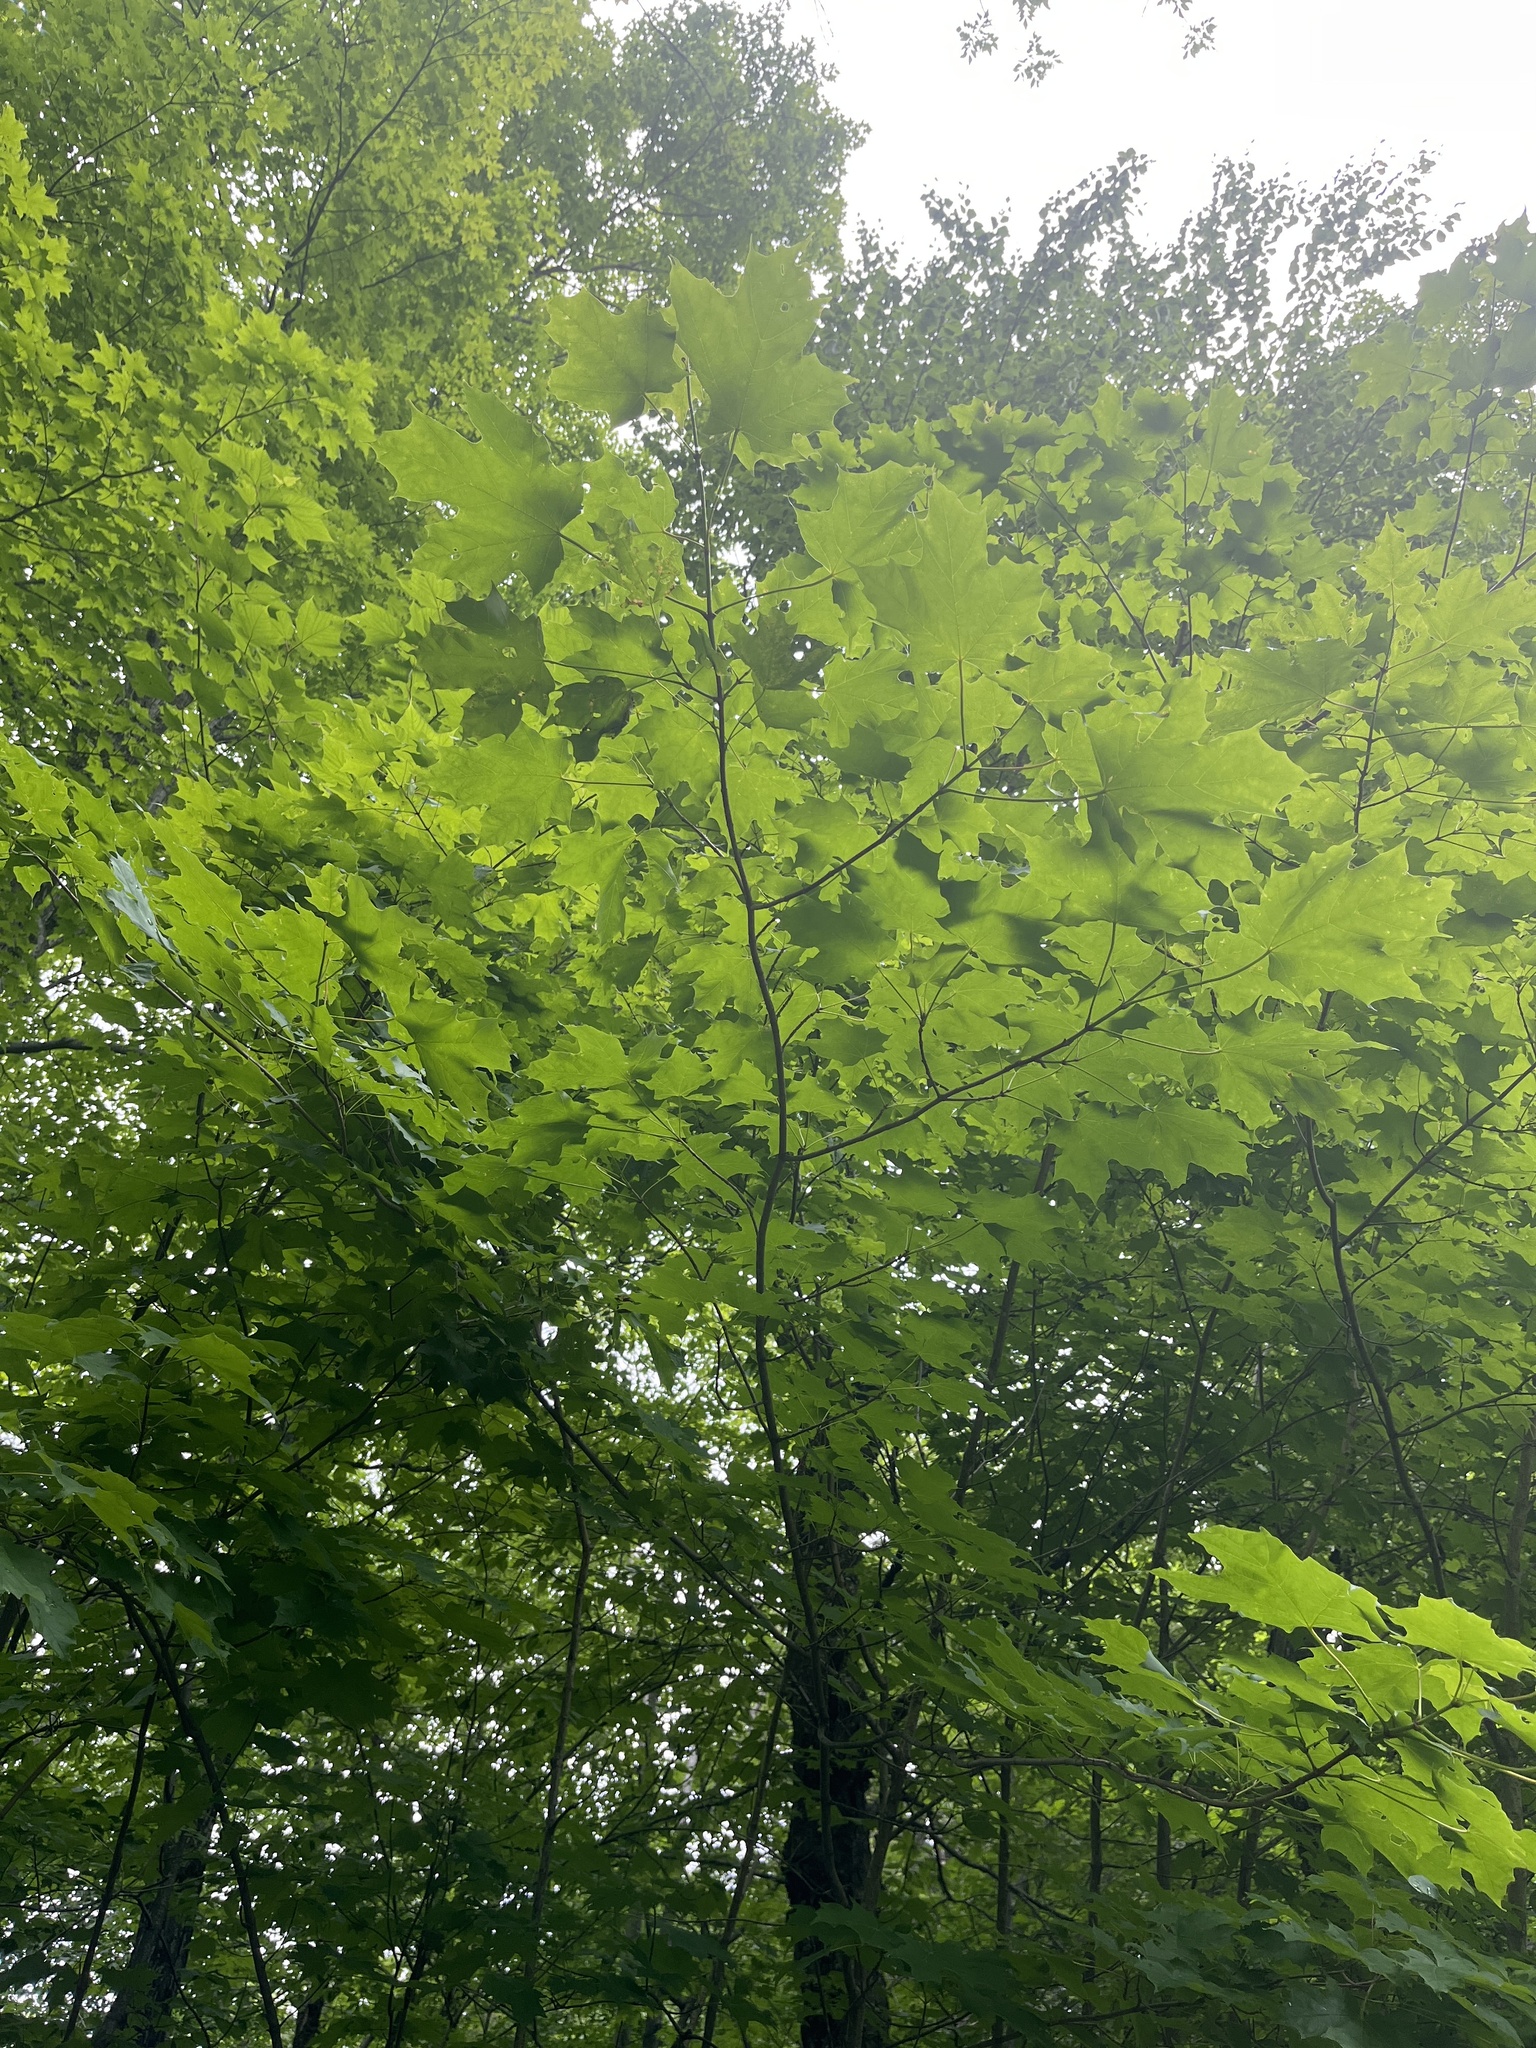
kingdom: Plantae
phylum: Tracheophyta
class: Magnoliopsida
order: Sapindales
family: Sapindaceae
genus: Acer
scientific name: Acer saccharum
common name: Sugar maple
